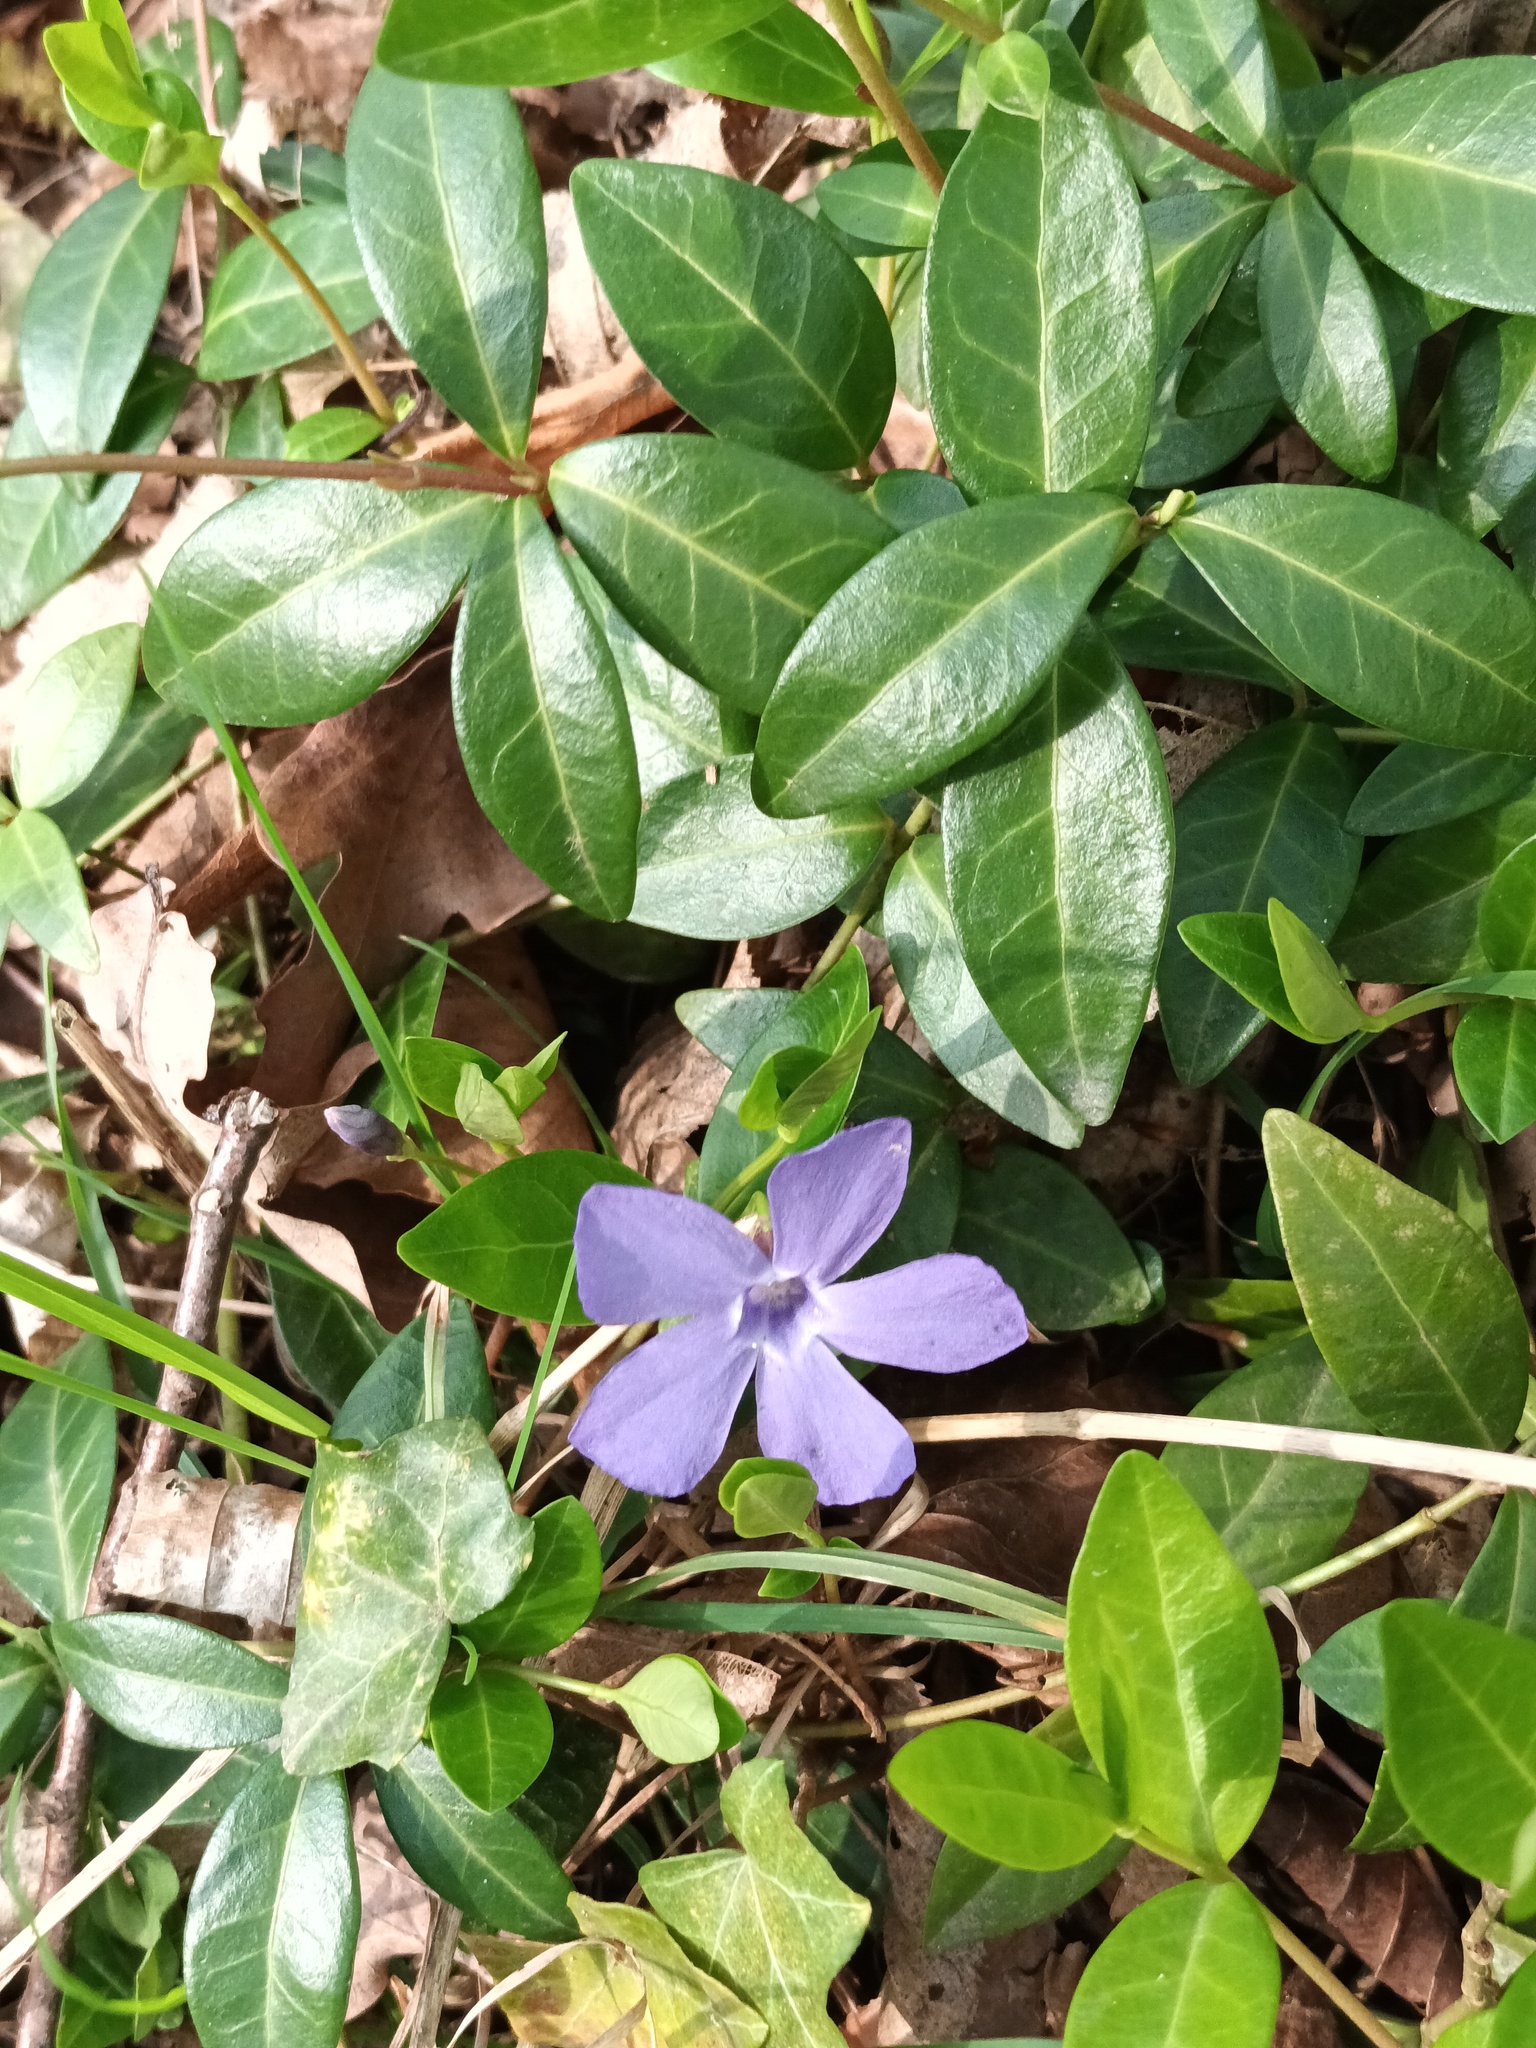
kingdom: Plantae
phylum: Tracheophyta
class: Magnoliopsida
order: Gentianales
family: Apocynaceae
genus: Vinca
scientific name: Vinca minor
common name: Lesser periwinkle
